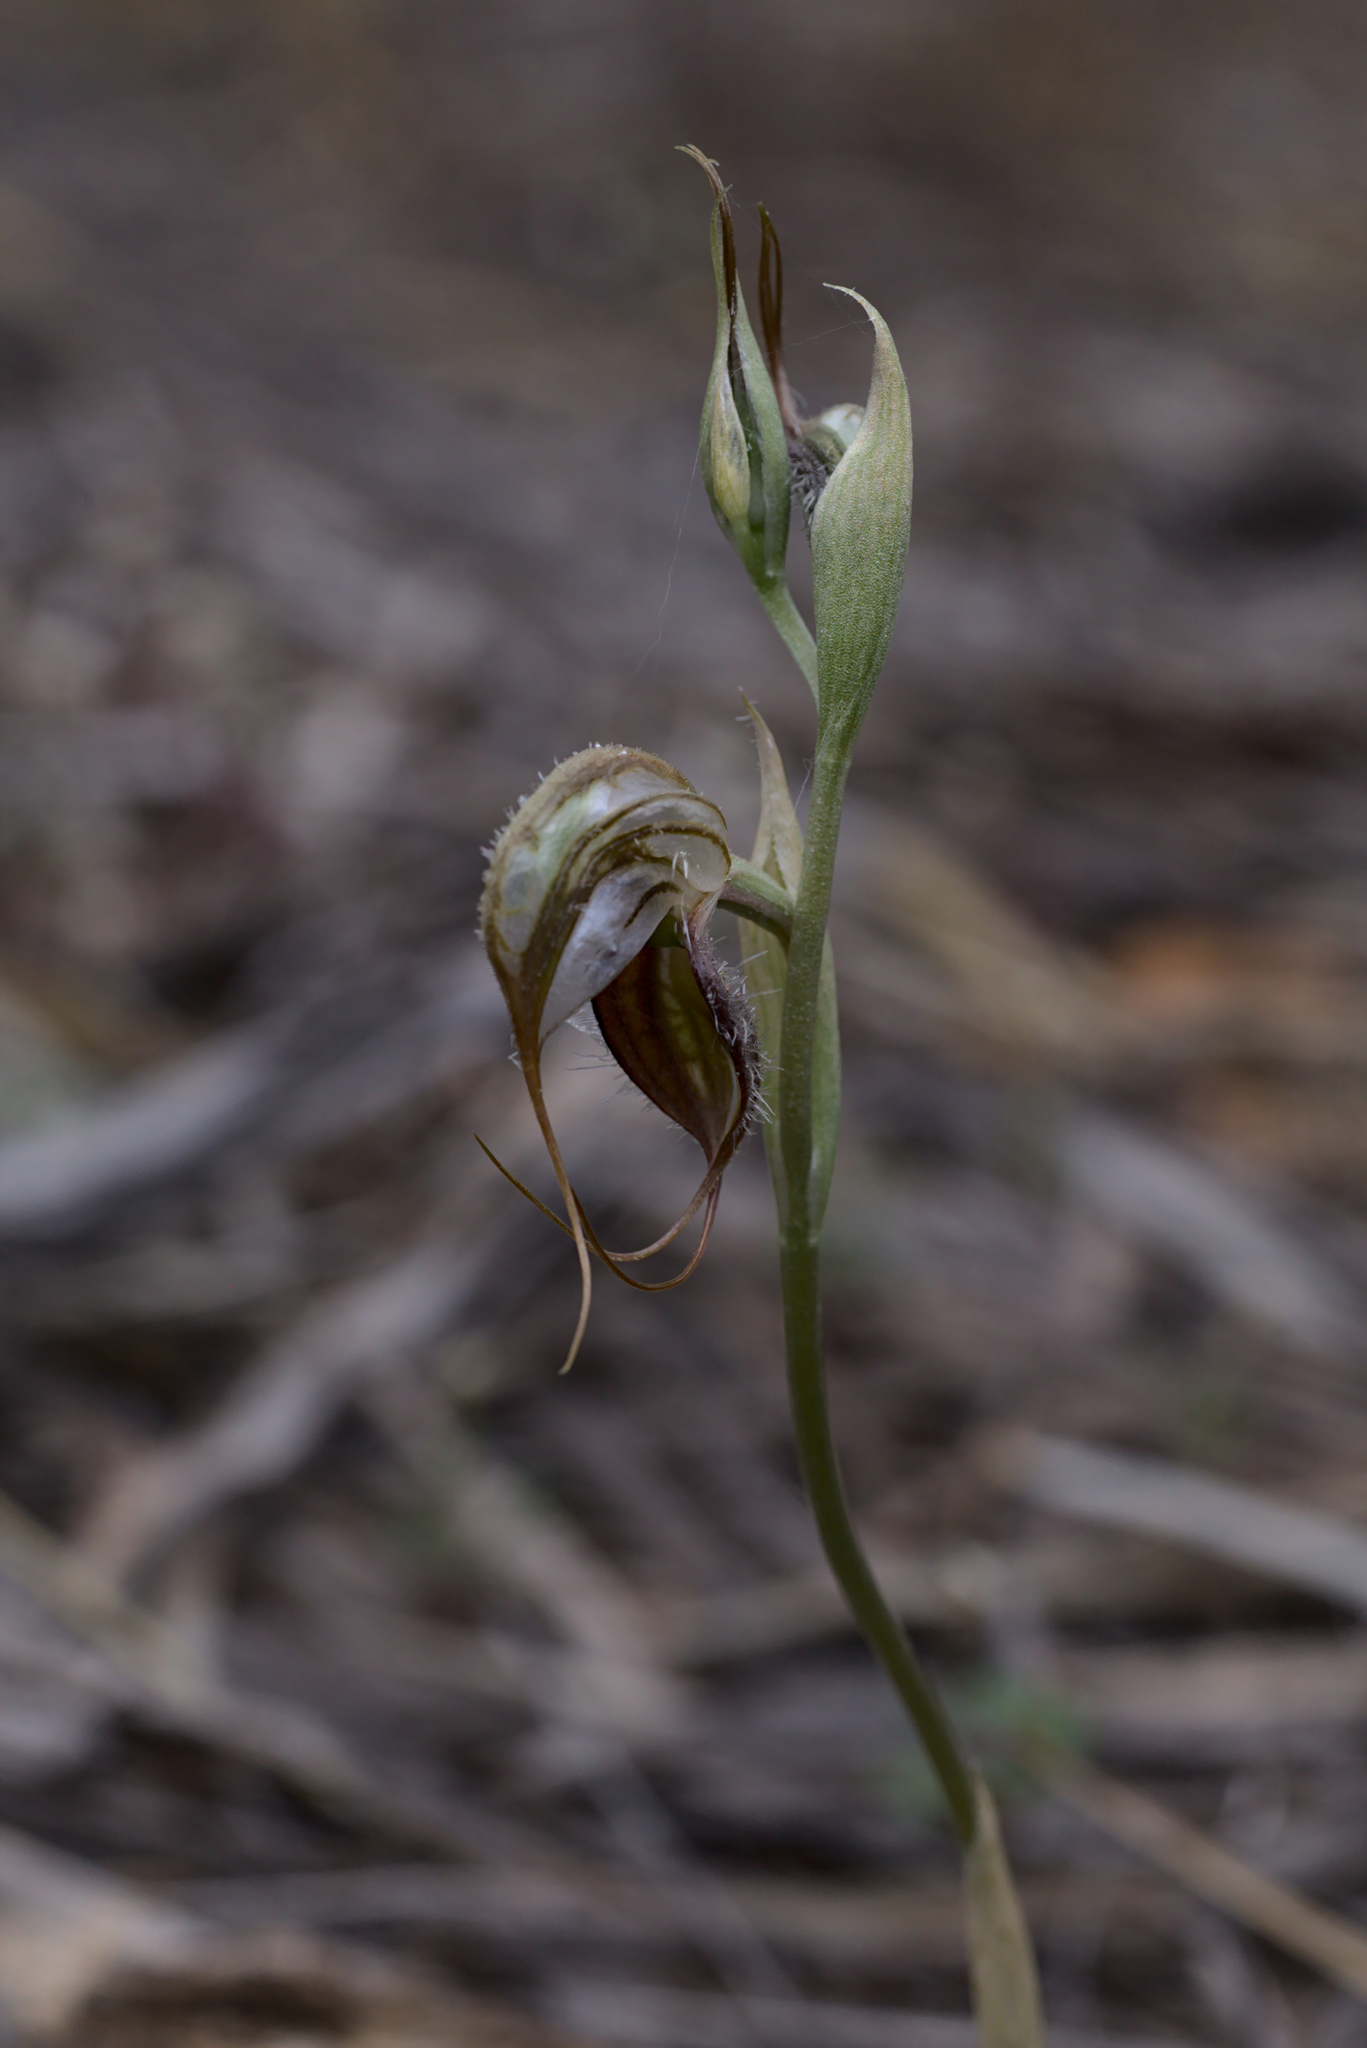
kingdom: Plantae
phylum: Tracheophyta
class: Liliopsida
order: Asparagales
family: Orchidaceae
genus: Pterostylis
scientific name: Pterostylis spathulata
